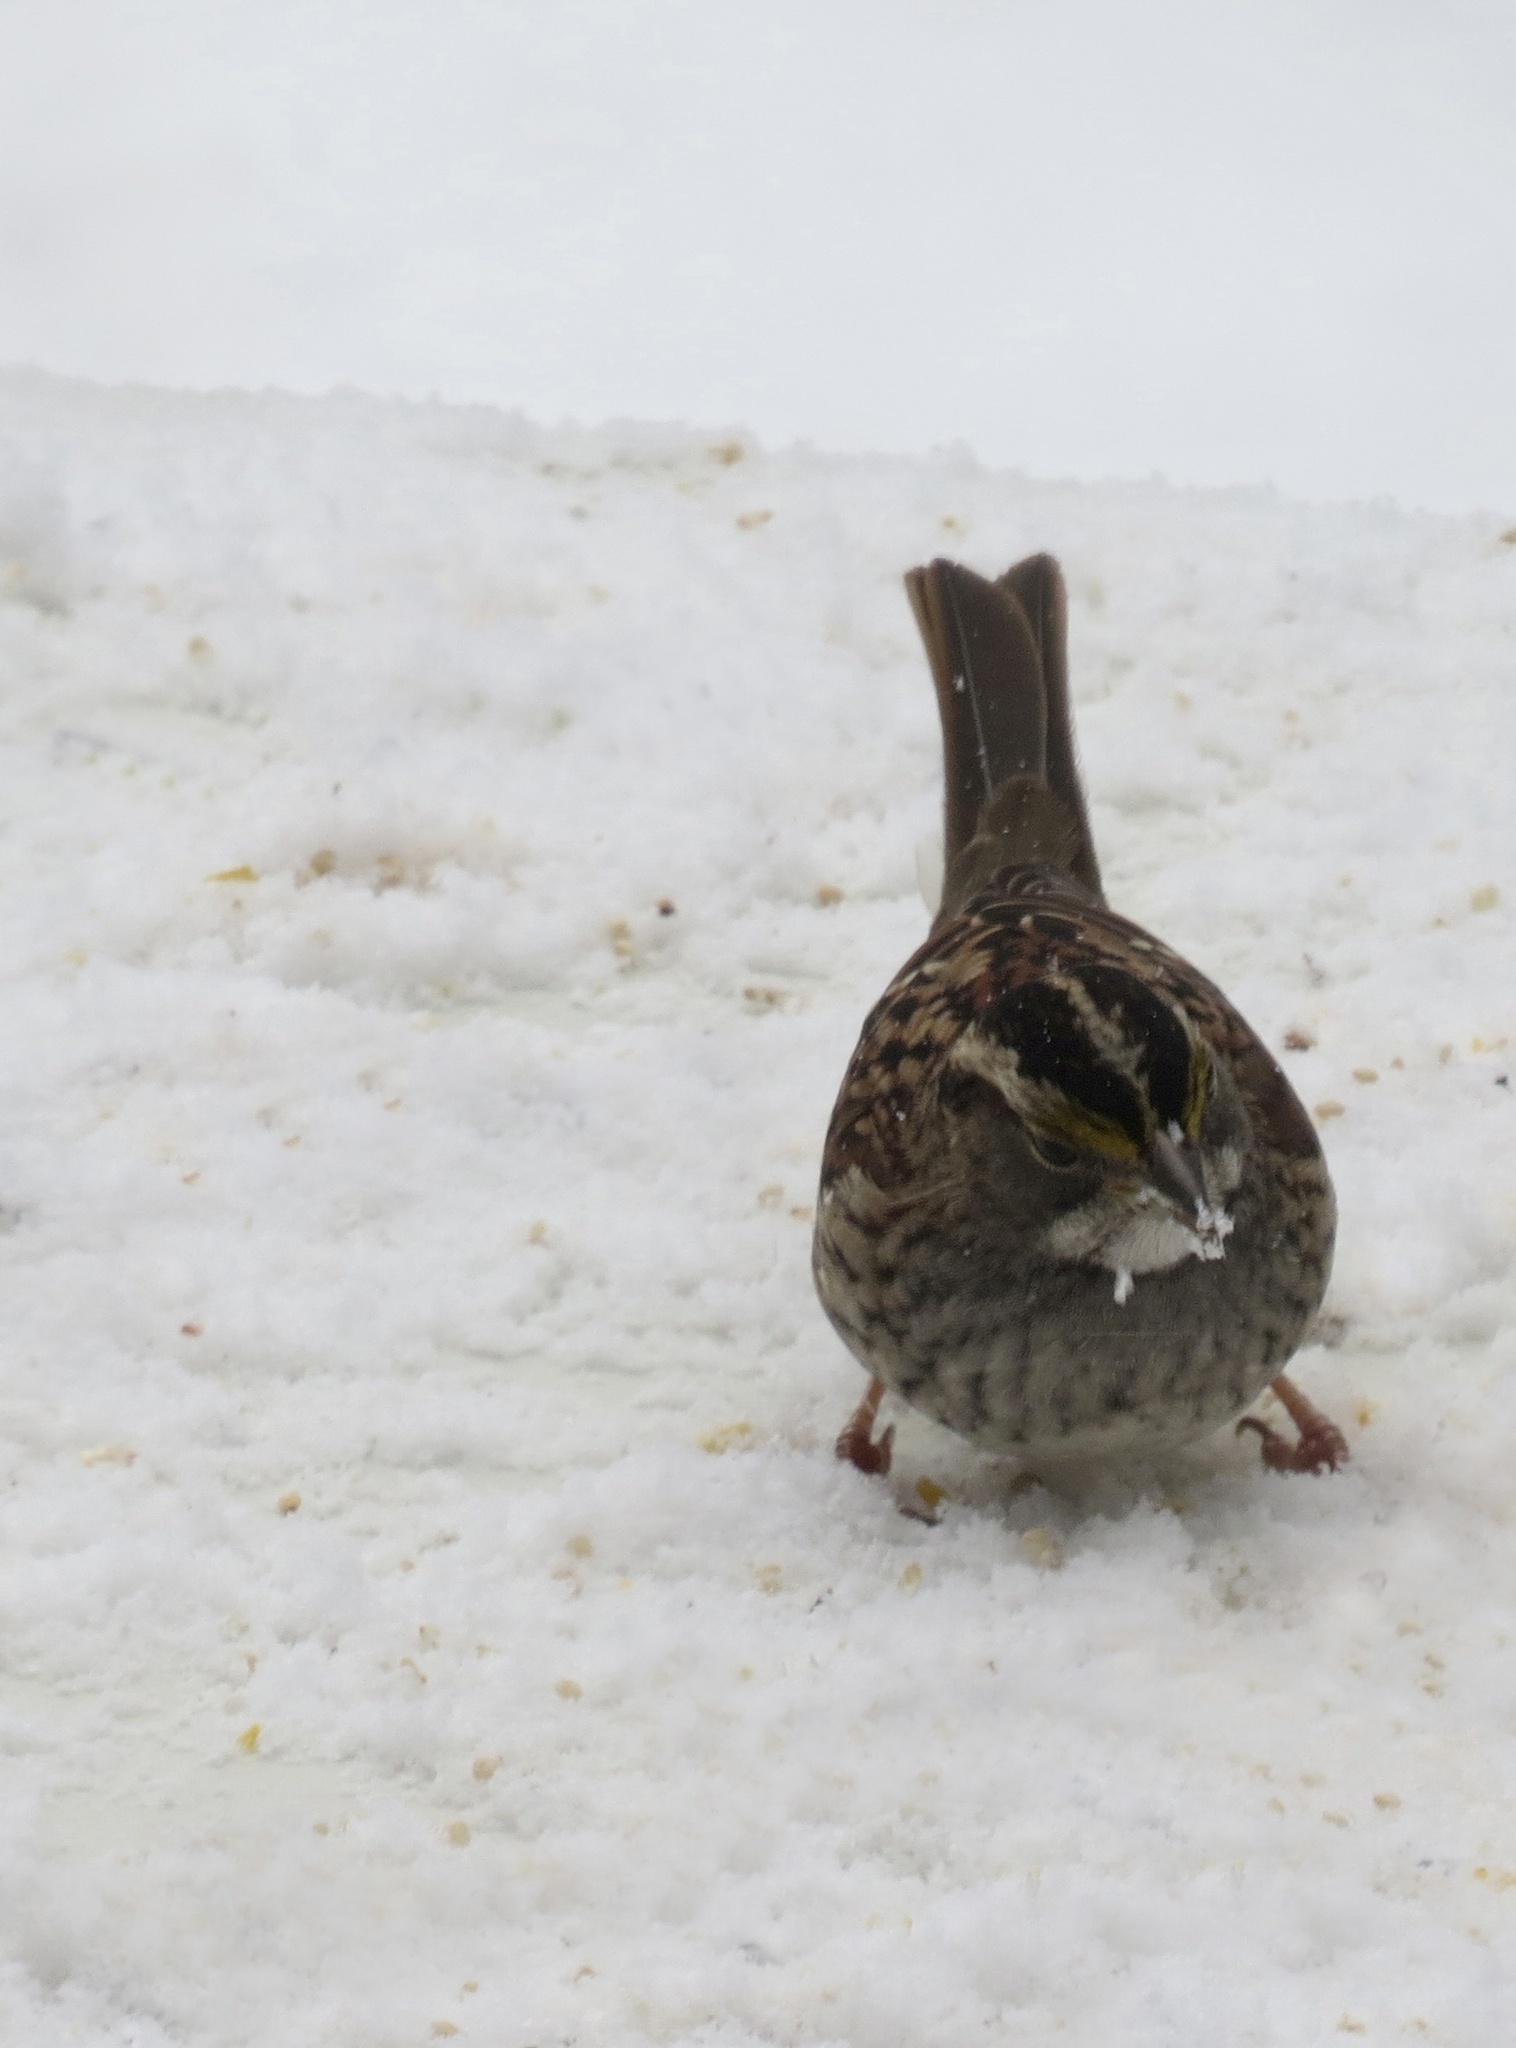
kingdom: Animalia
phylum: Chordata
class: Aves
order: Passeriformes
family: Passerellidae
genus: Zonotrichia
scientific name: Zonotrichia albicollis
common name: White-throated sparrow
